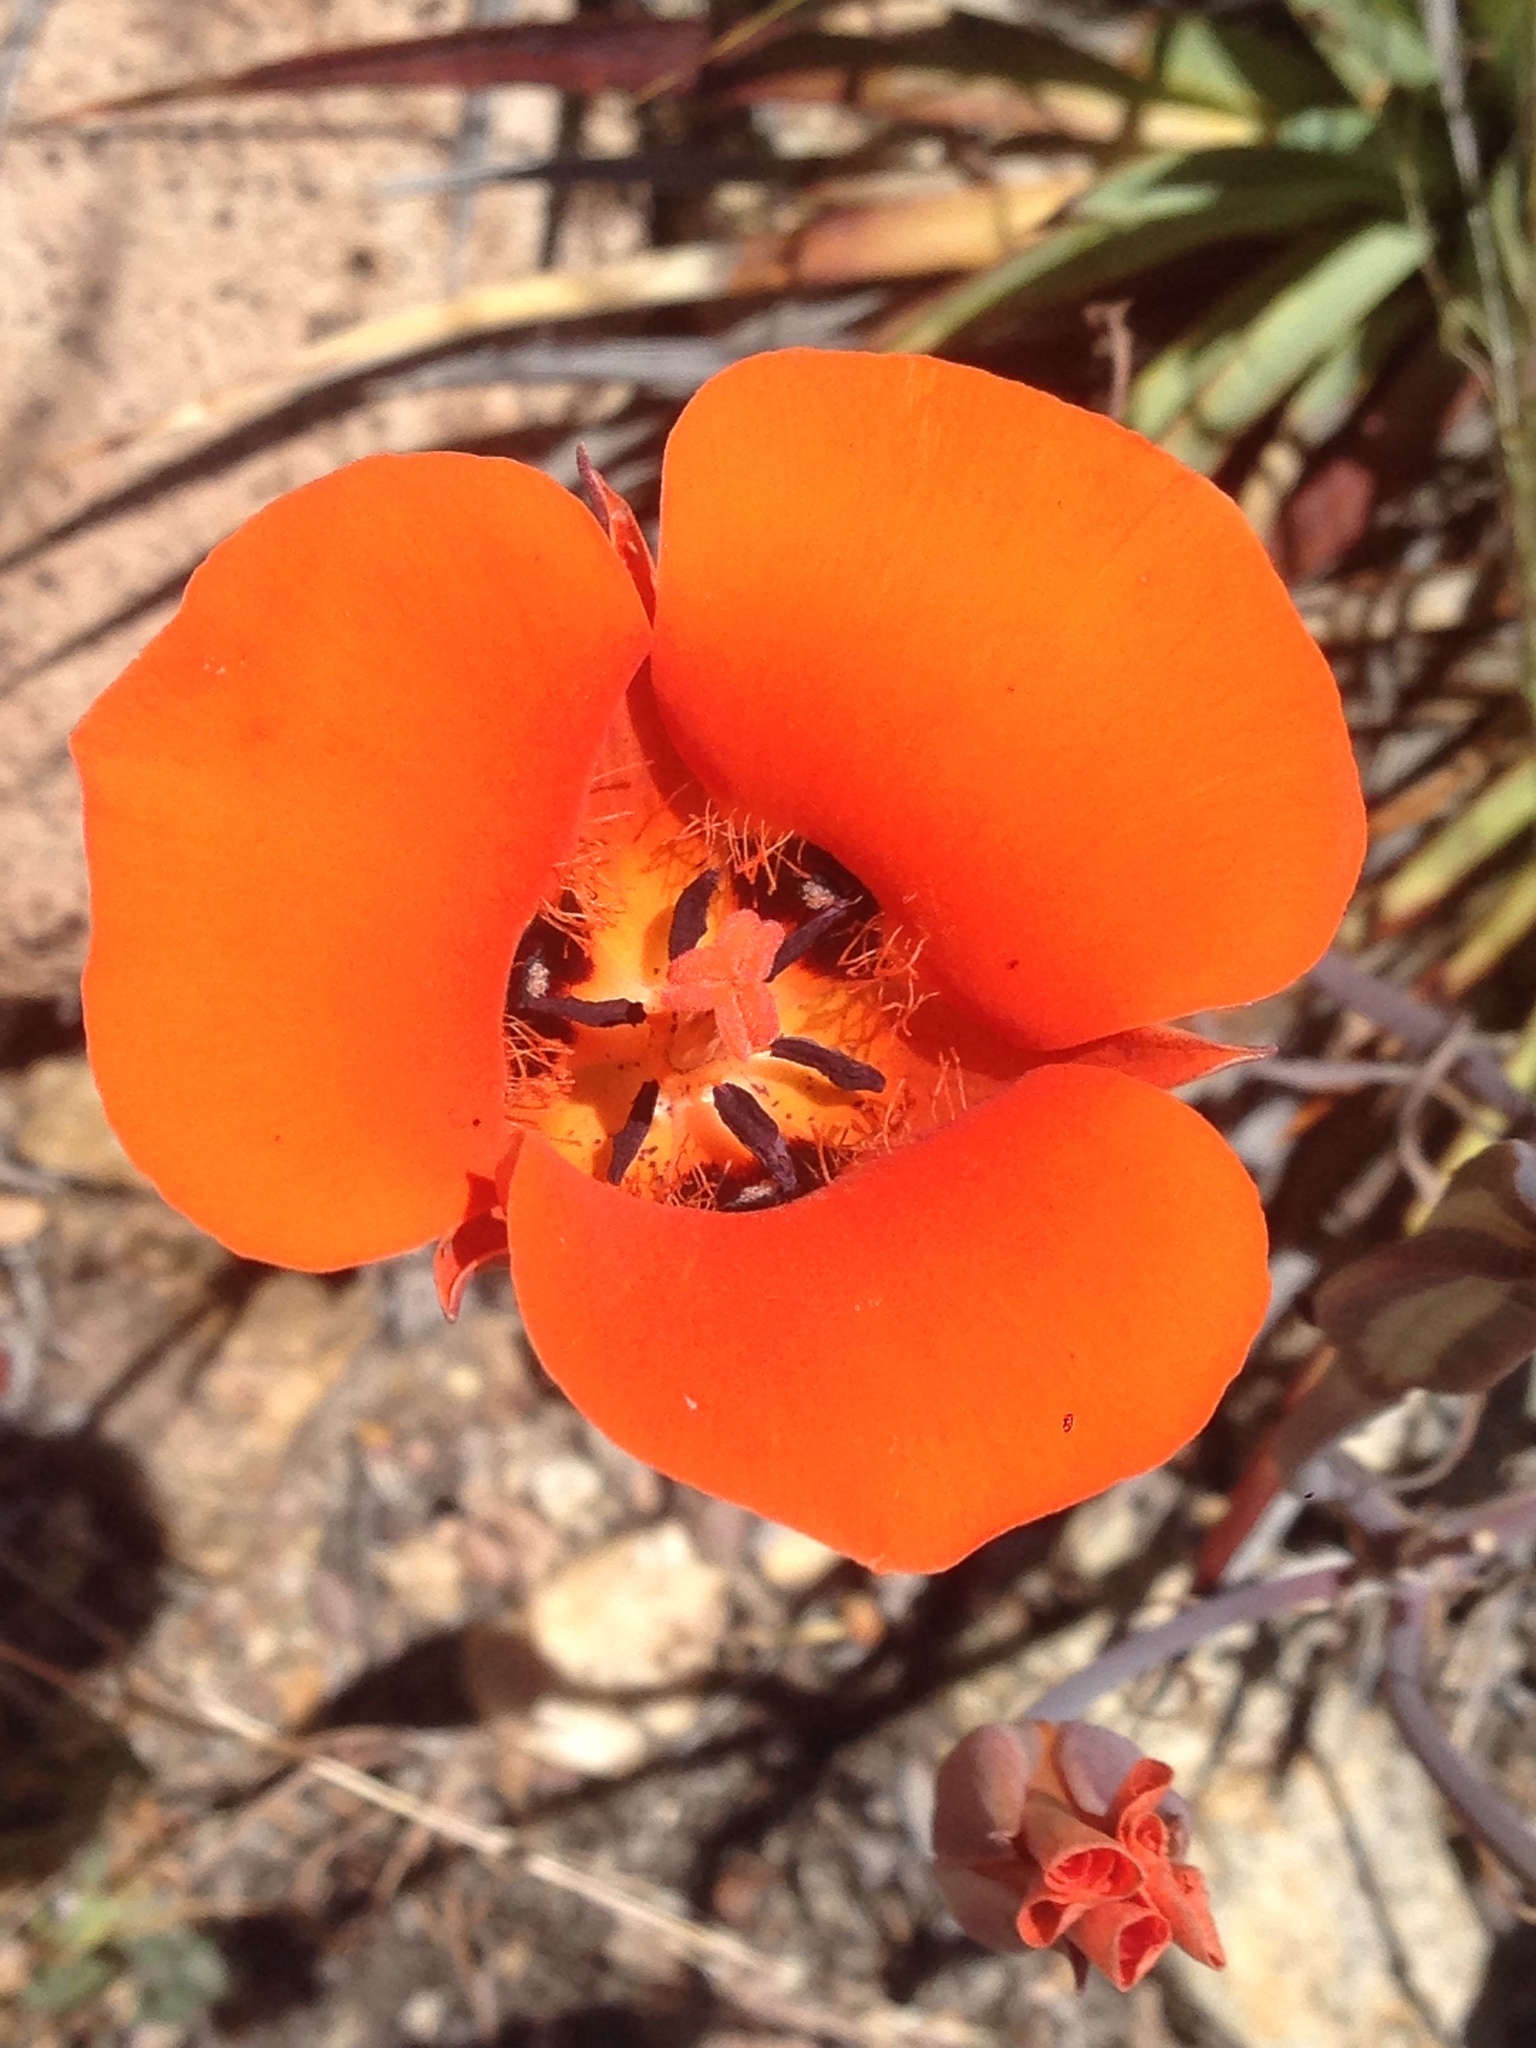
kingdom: Plantae
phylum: Tracheophyta
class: Liliopsida
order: Liliales
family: Liliaceae
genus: Calochortus
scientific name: Calochortus kennedyi
